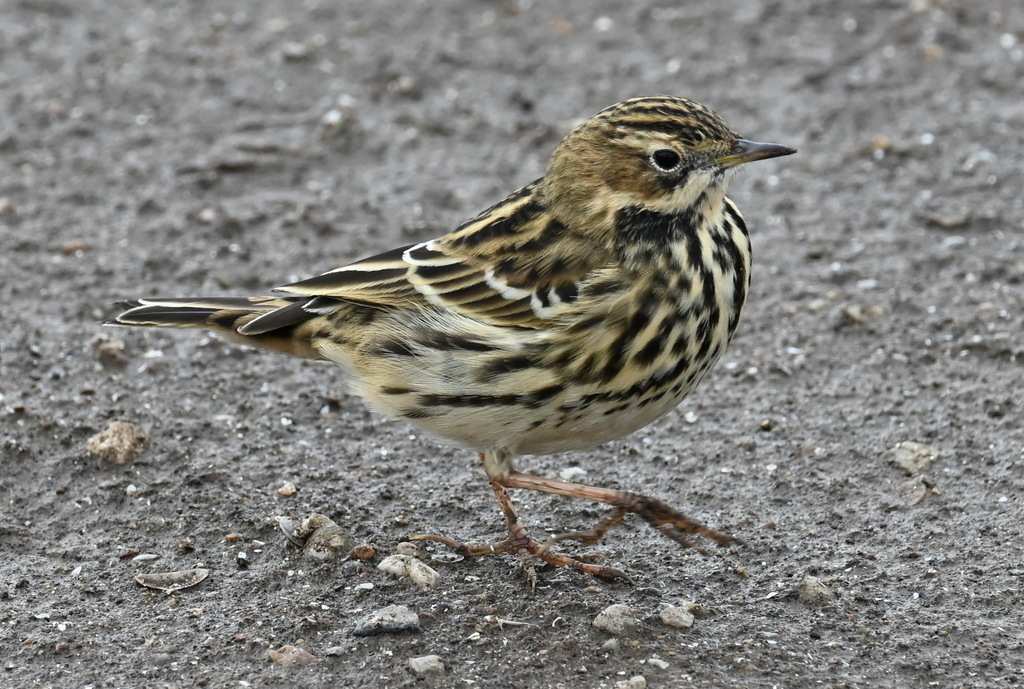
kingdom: Animalia
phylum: Chordata
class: Aves
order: Passeriformes
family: Motacillidae
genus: Anthus
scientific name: Anthus cervinus
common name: Red-throated pipit
